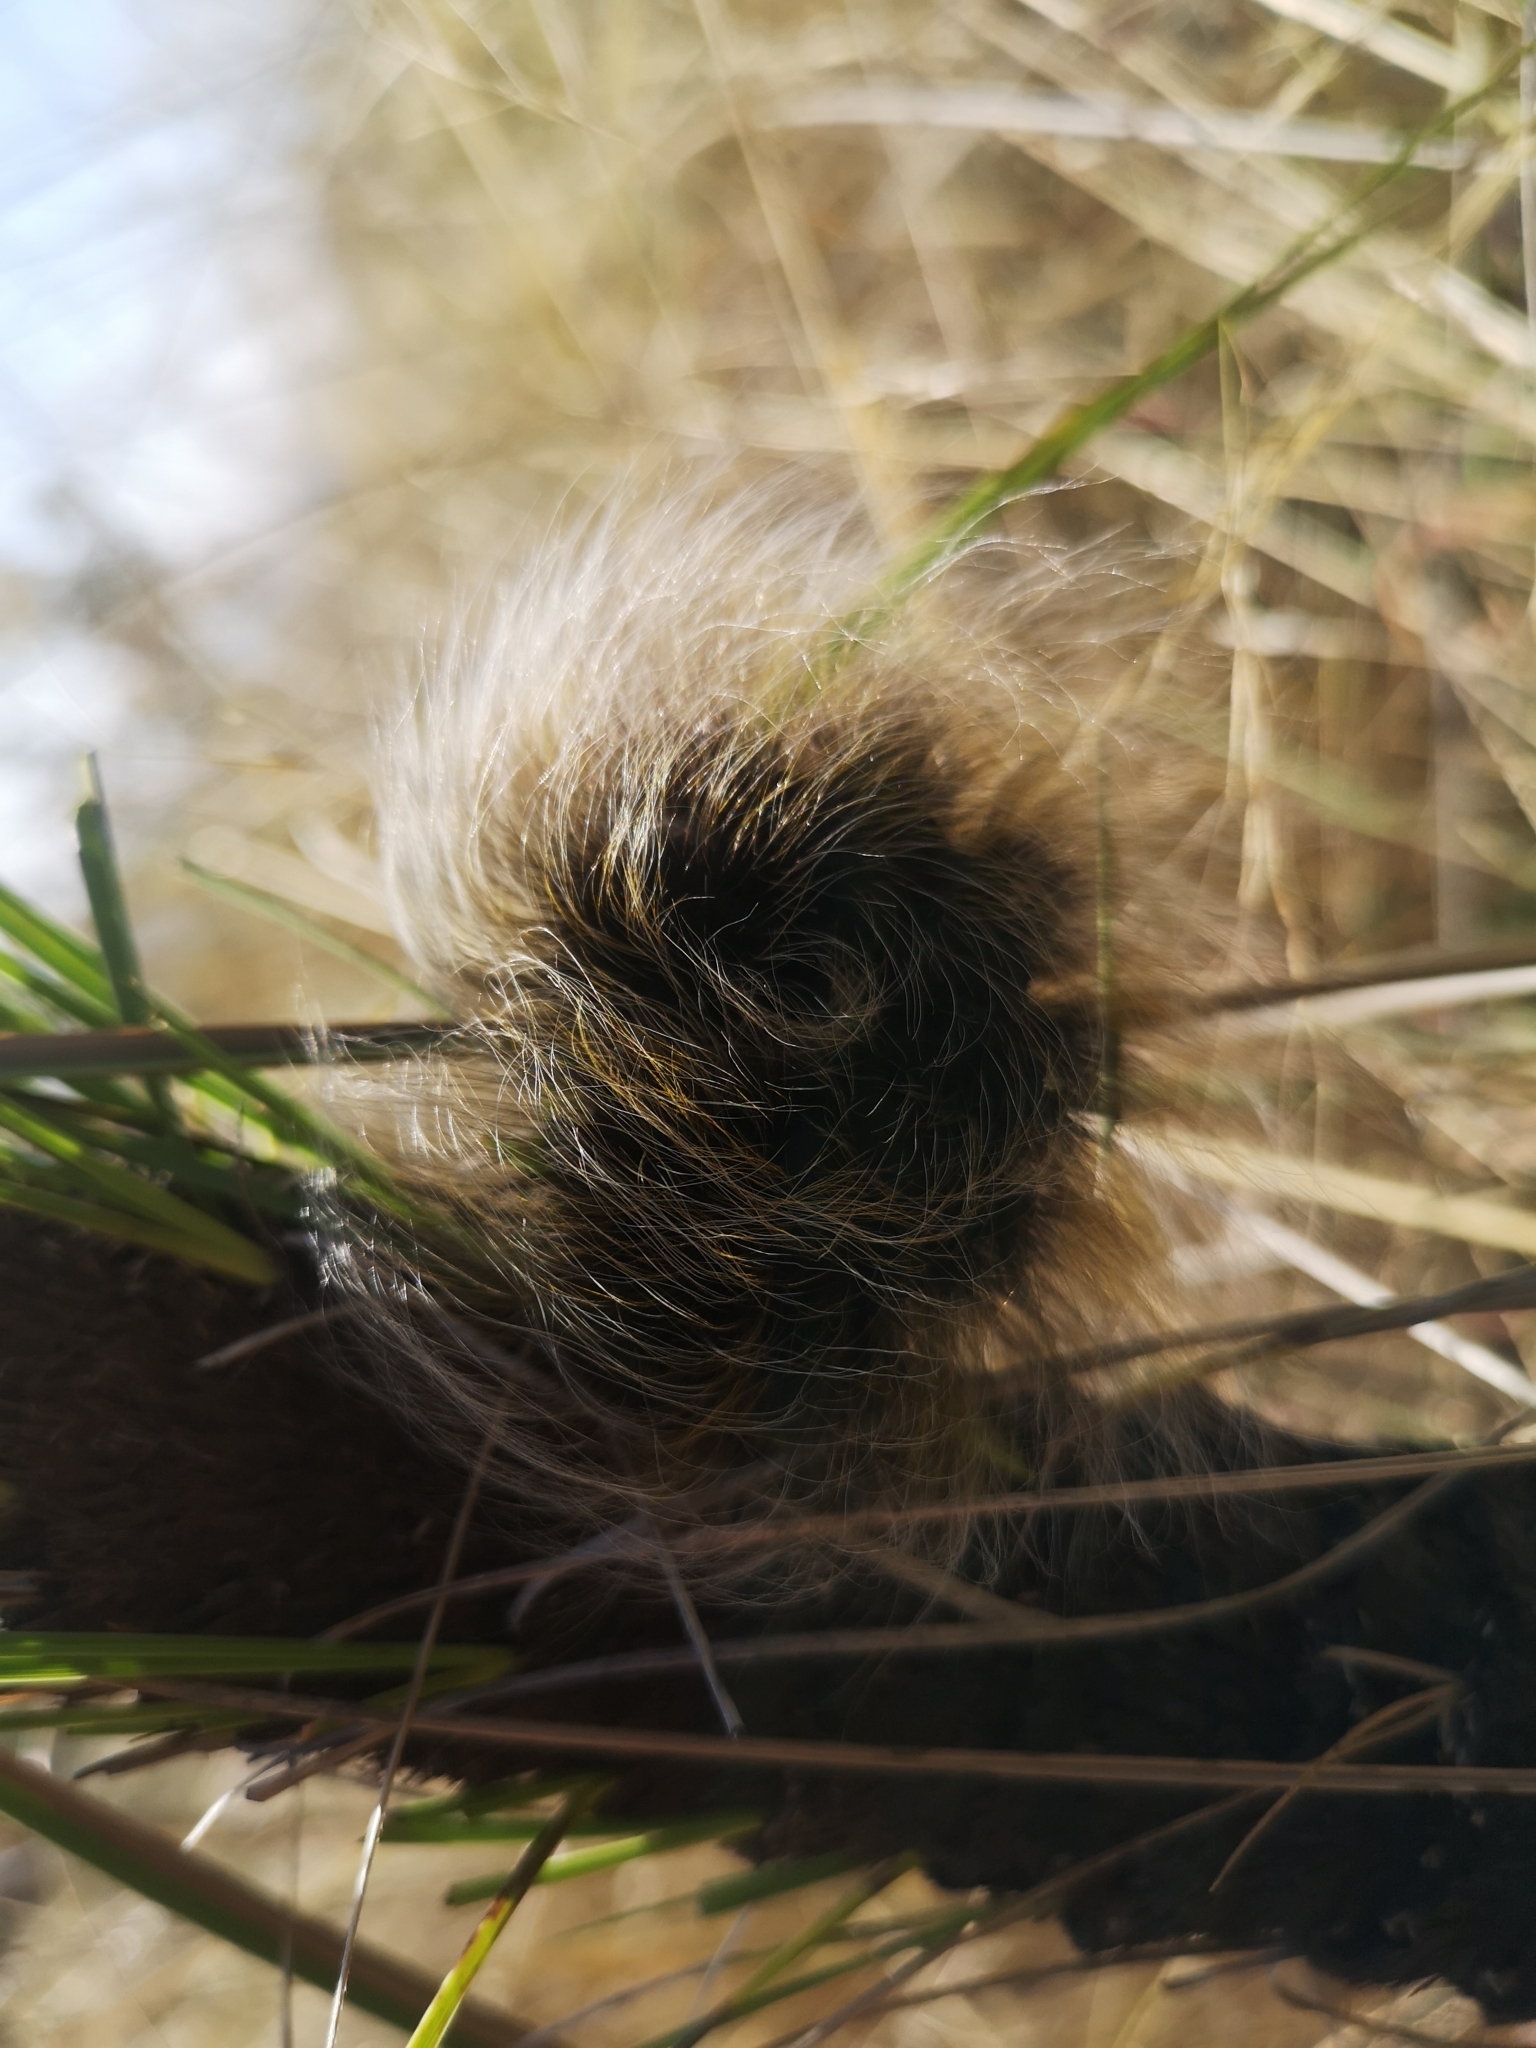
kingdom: Animalia
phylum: Arthropoda
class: Insecta
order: Lepidoptera
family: Eupterotidae
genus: Janomima
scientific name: Janomima mariana
